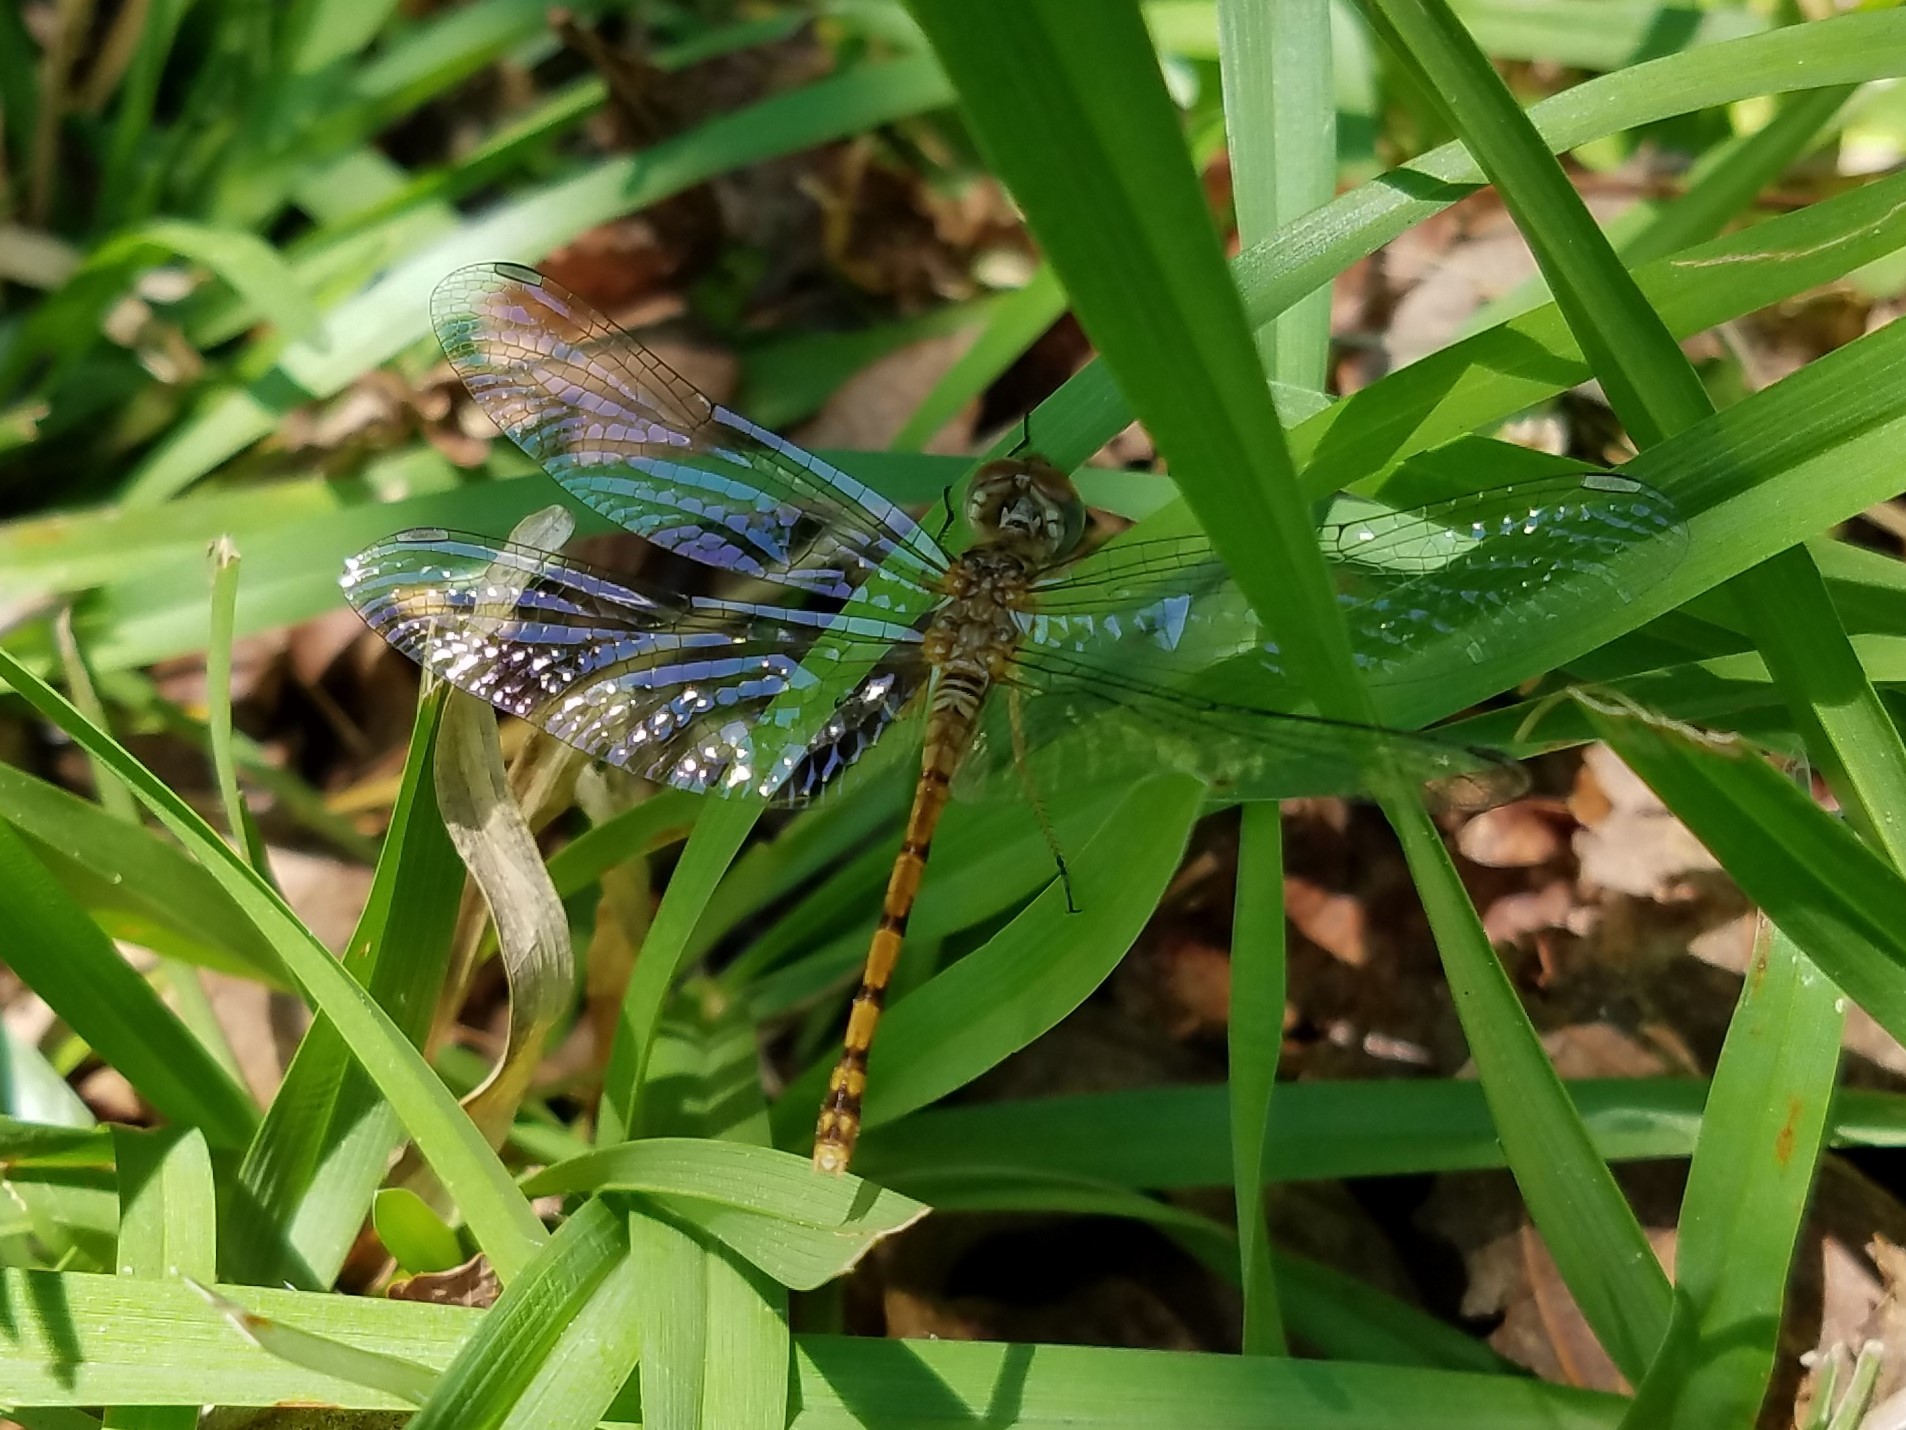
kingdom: Animalia
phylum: Arthropoda
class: Insecta
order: Odonata
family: Libellulidae
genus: Sympetrum
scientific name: Sympetrum ambiguum
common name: Blue-faced meadowhawk
